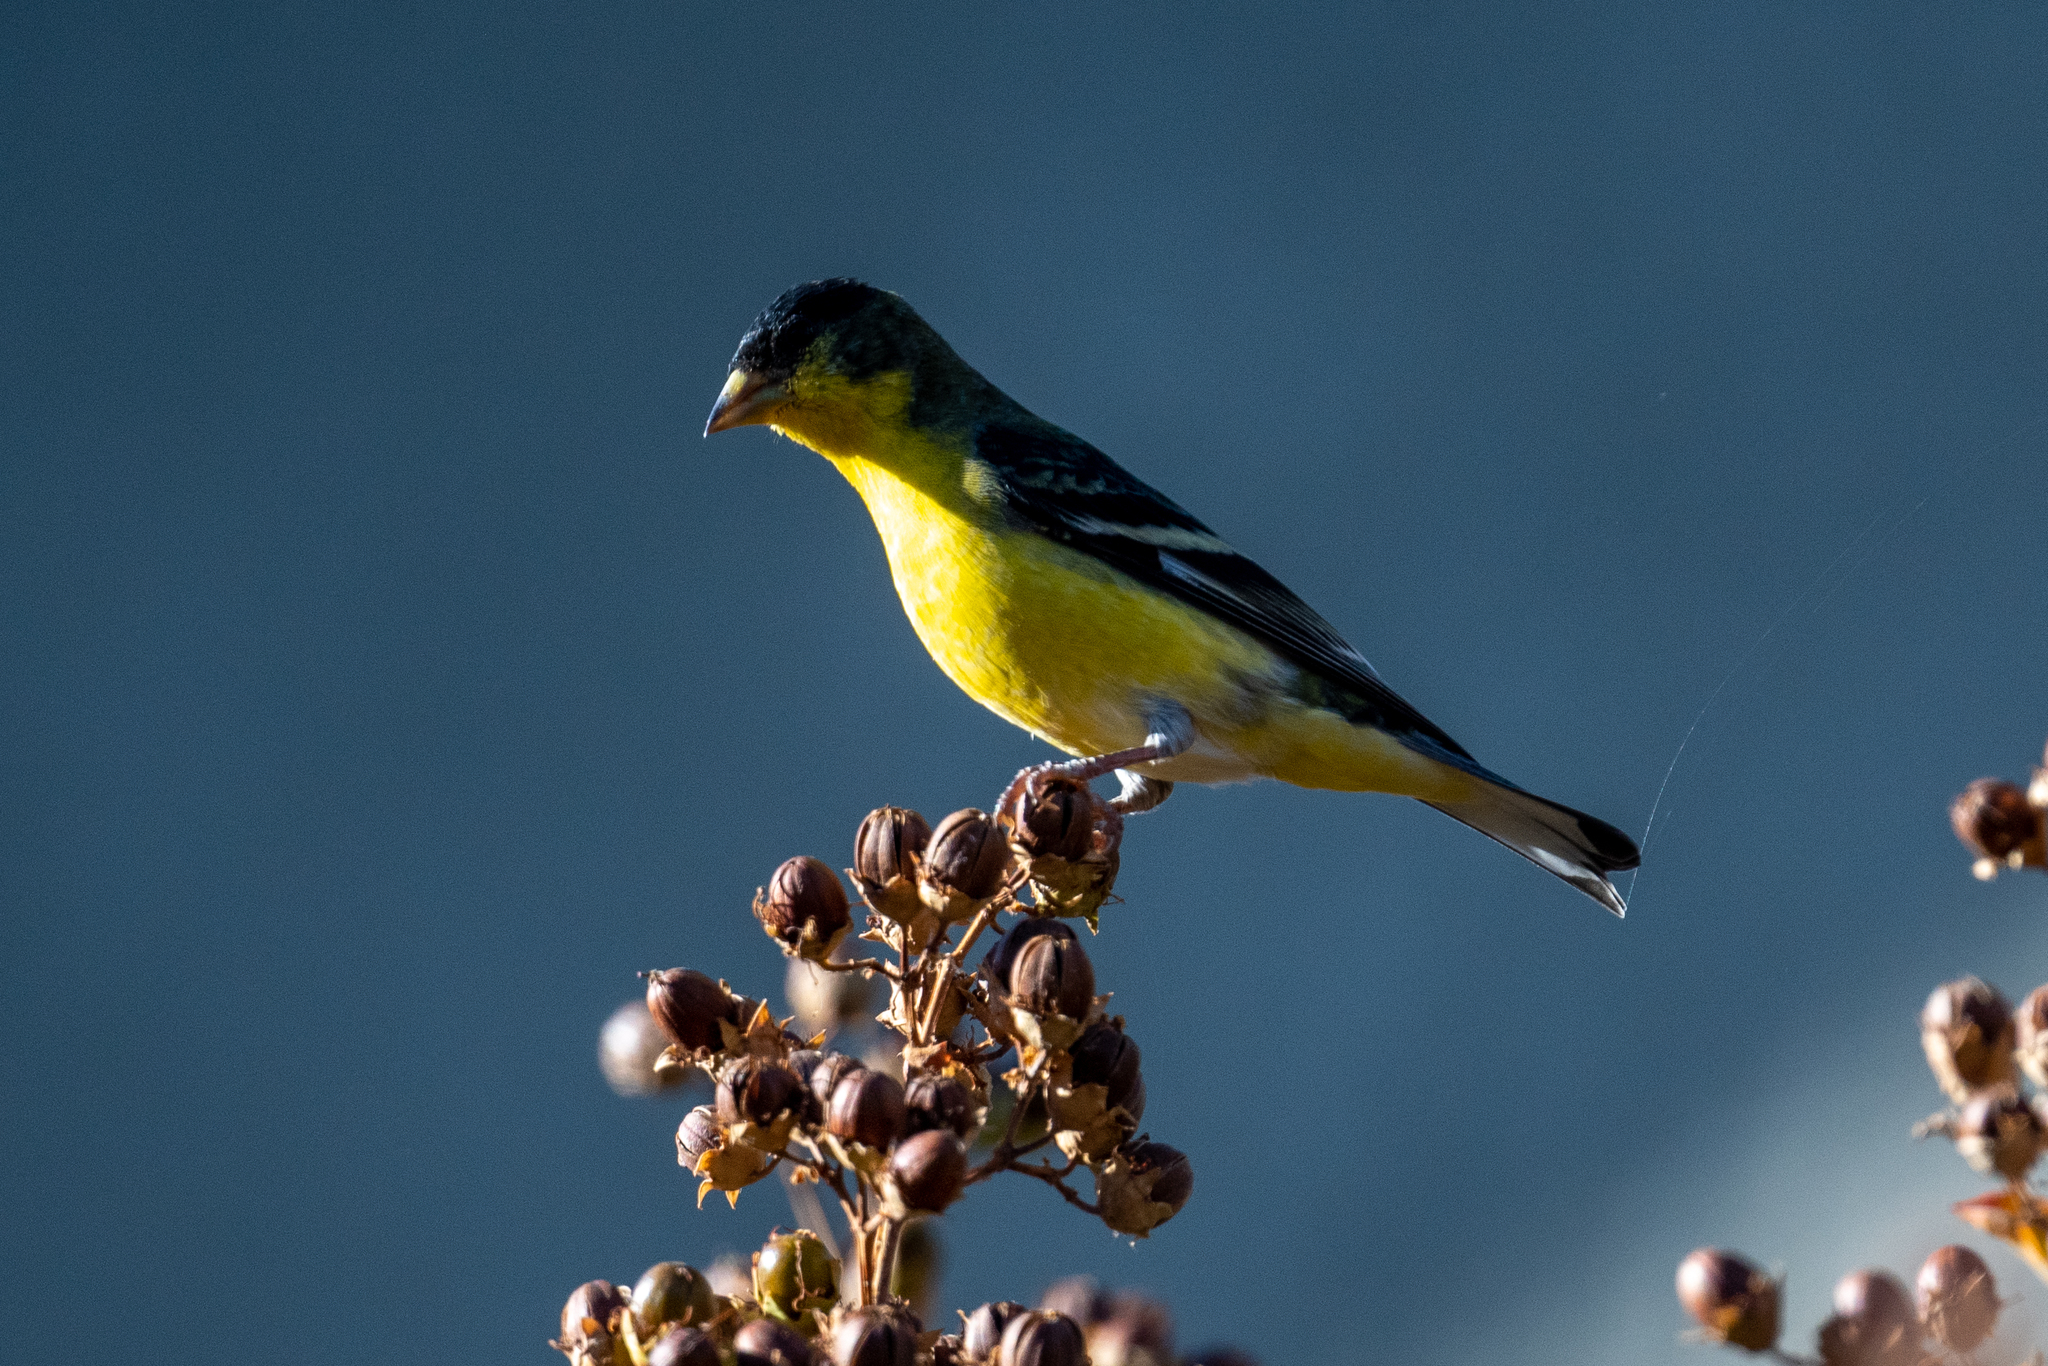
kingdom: Animalia
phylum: Chordata
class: Aves
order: Passeriformes
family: Fringillidae
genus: Spinus
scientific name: Spinus psaltria
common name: Lesser goldfinch
